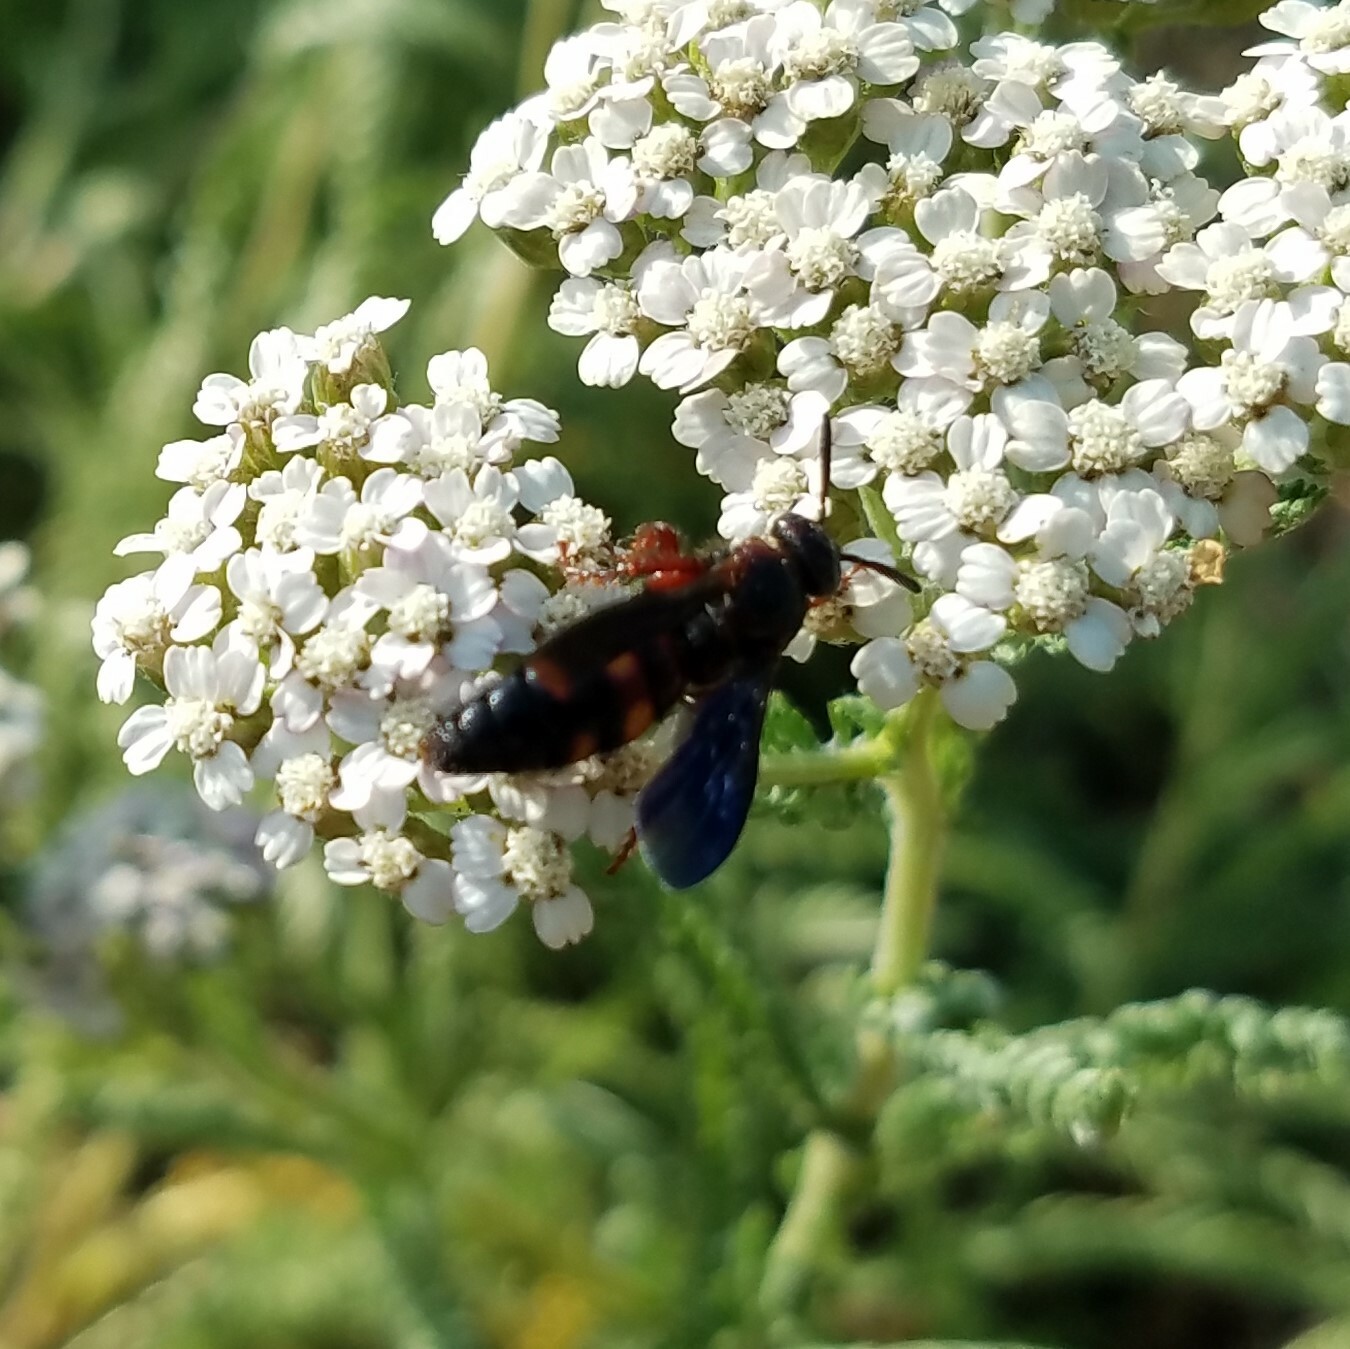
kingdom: Animalia
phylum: Arthropoda
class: Insecta
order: Hymenoptera
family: Scoliidae
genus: Scolia
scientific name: Scolia nobilitata
